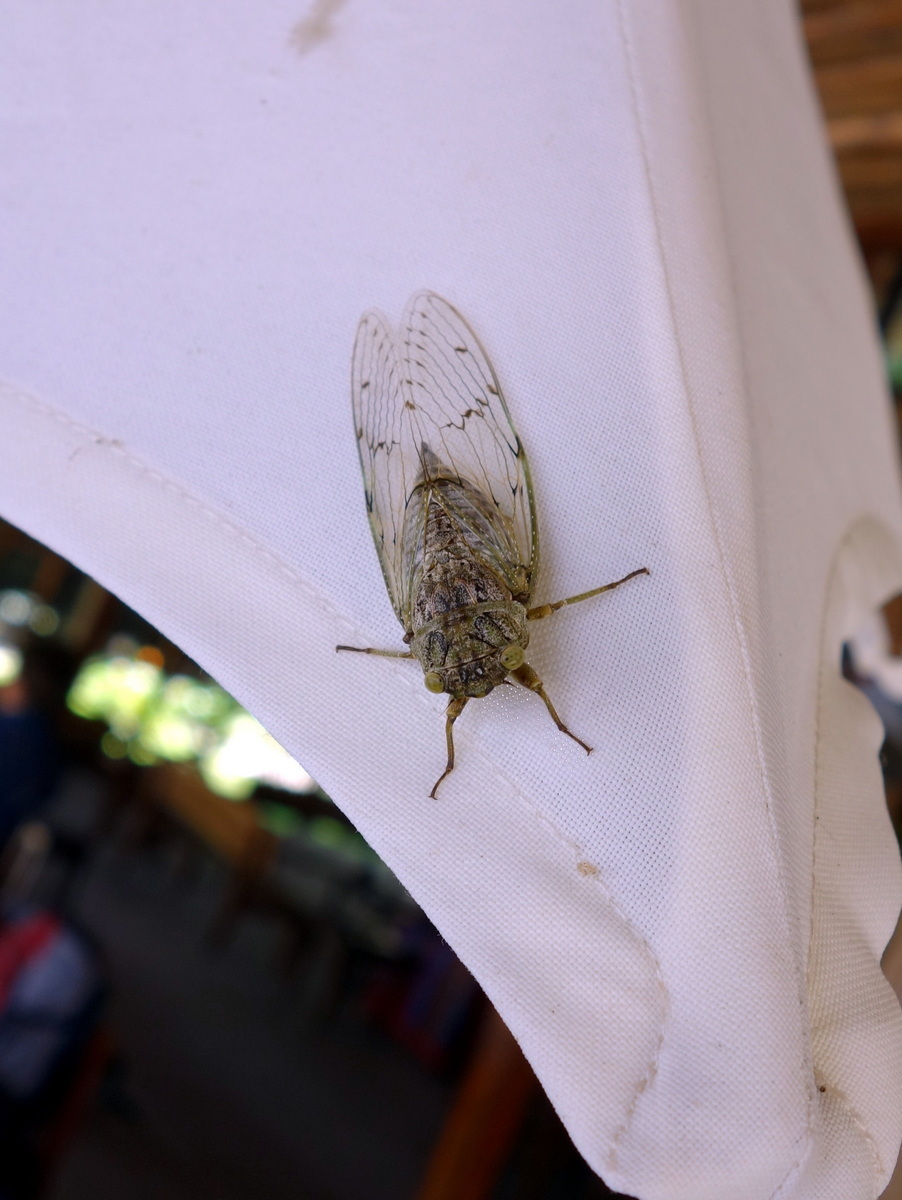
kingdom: Animalia
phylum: Arthropoda
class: Insecta
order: Hemiptera
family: Cicadidae
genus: Proarna
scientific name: Proarna
